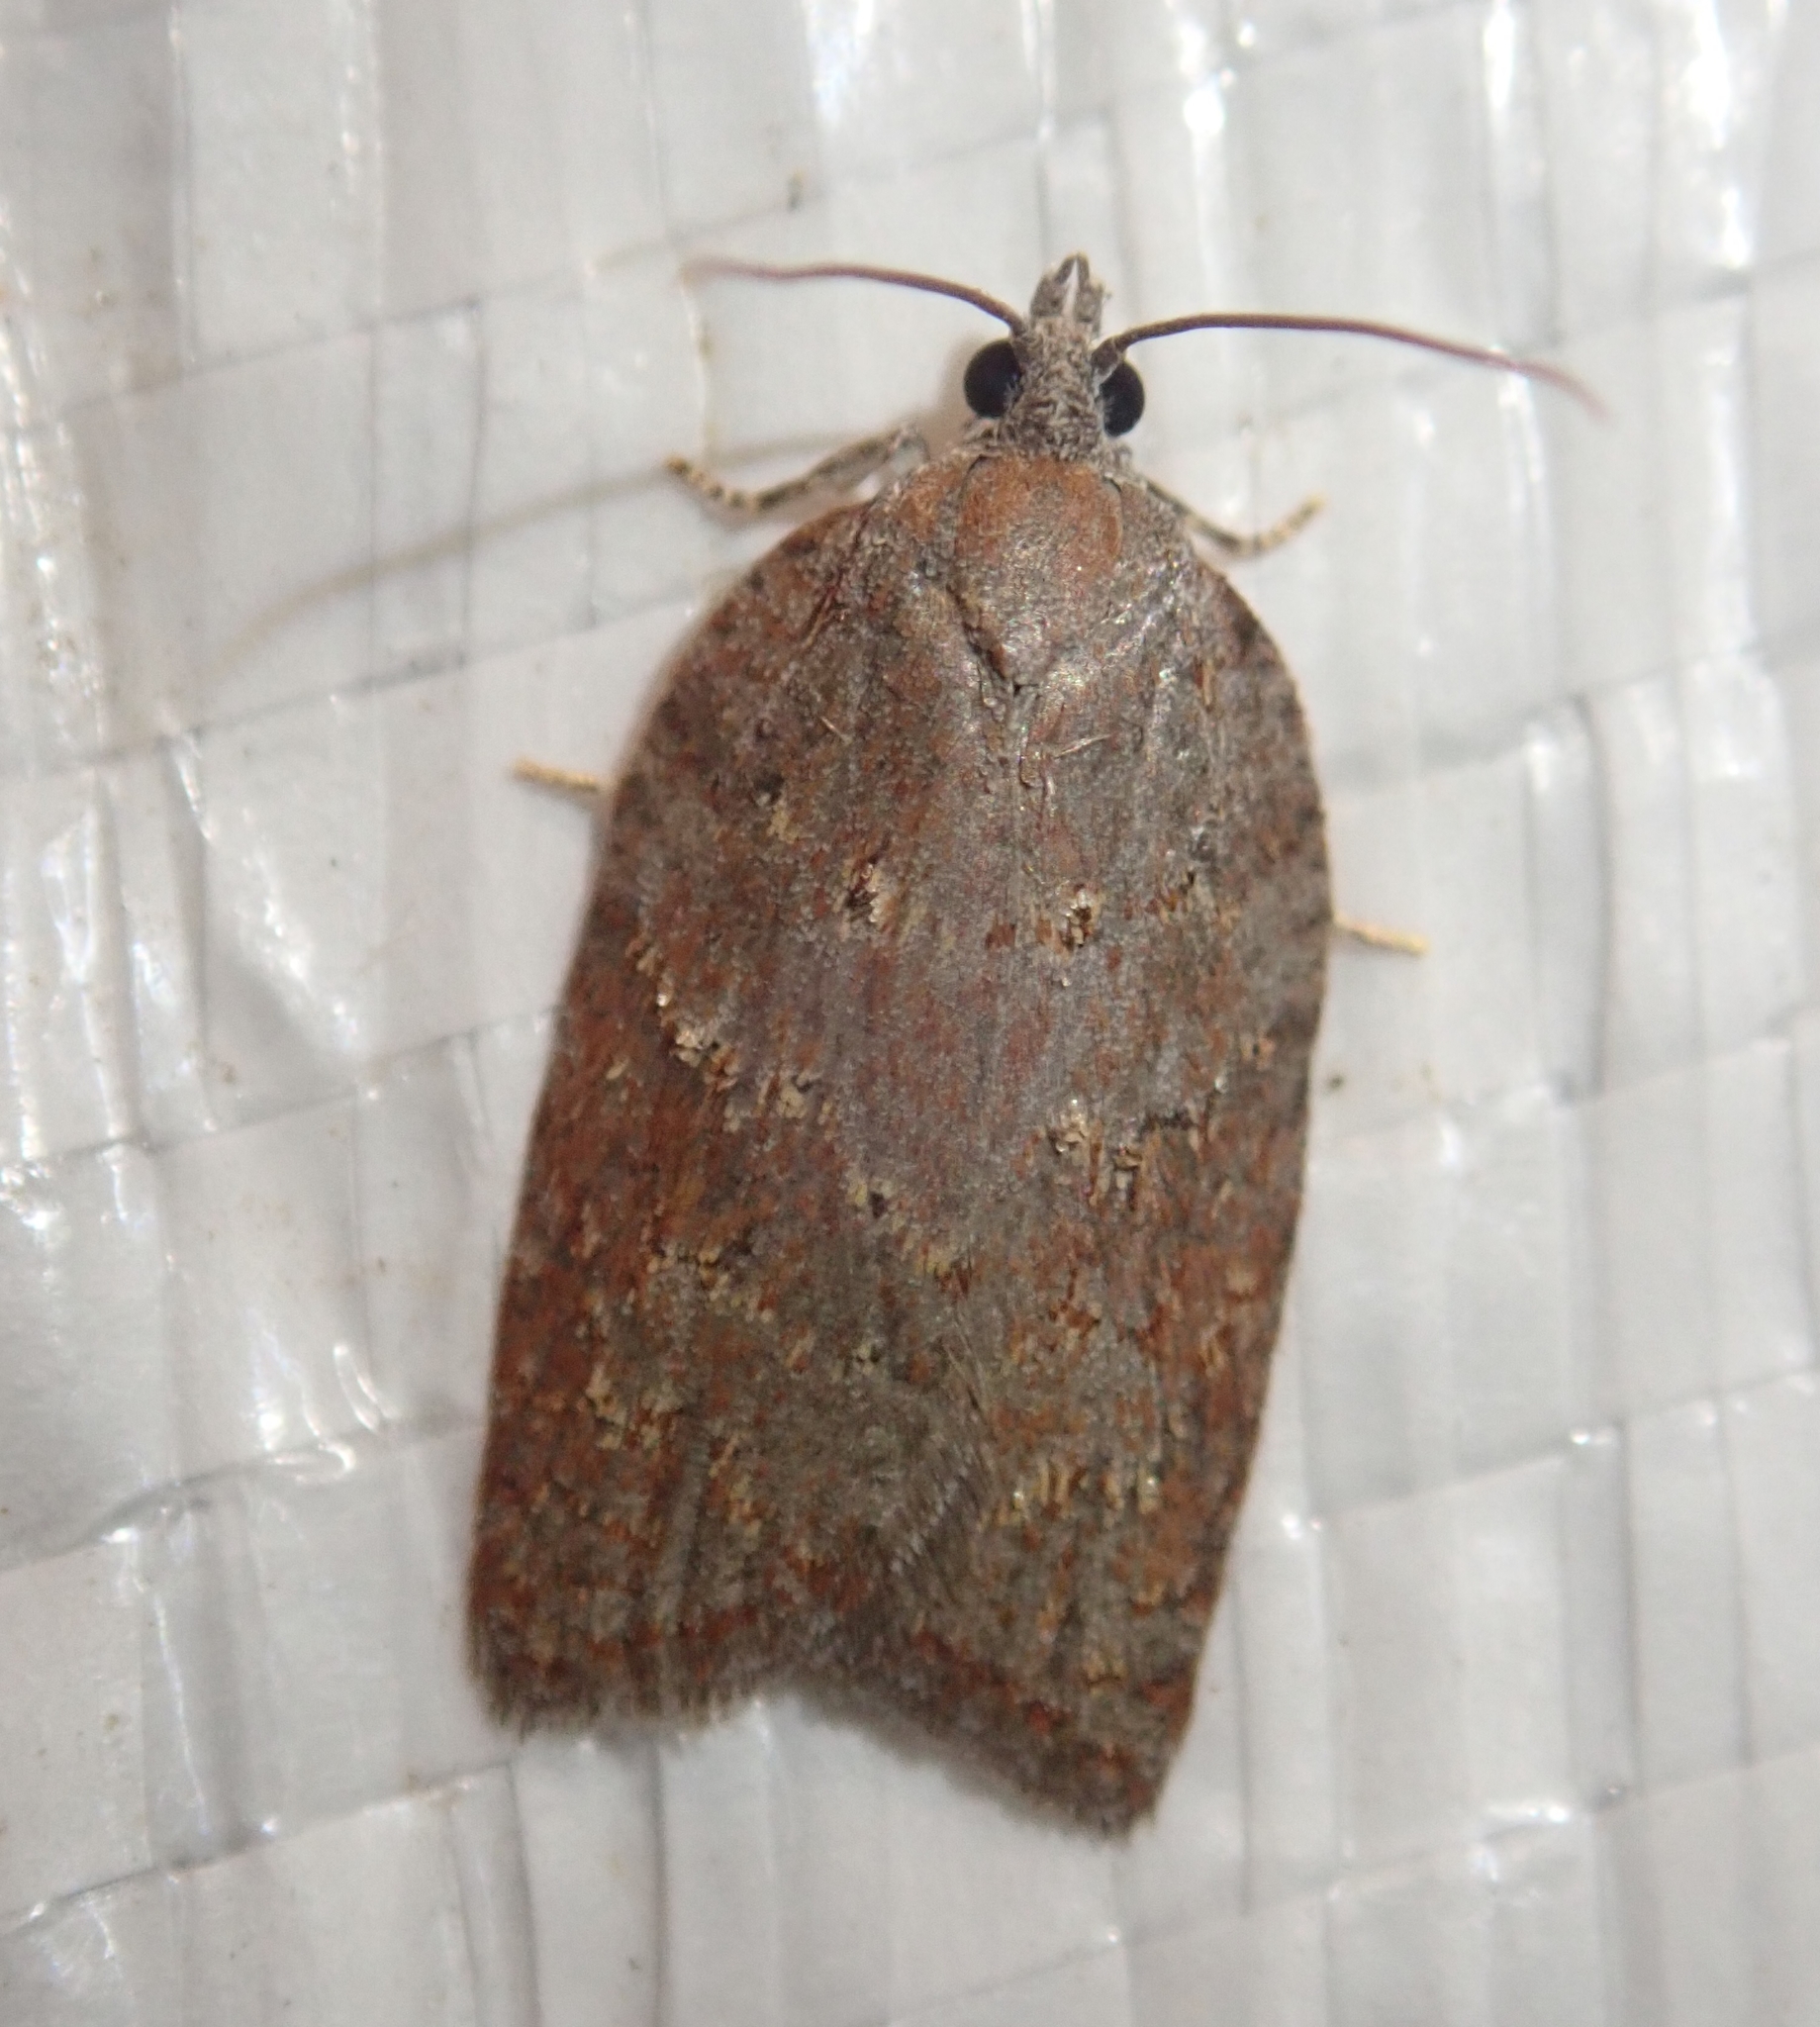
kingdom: Animalia
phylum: Arthropoda
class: Insecta
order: Lepidoptera
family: Tortricidae
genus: Acleris
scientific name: Acleris sparsana
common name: Ashy button
